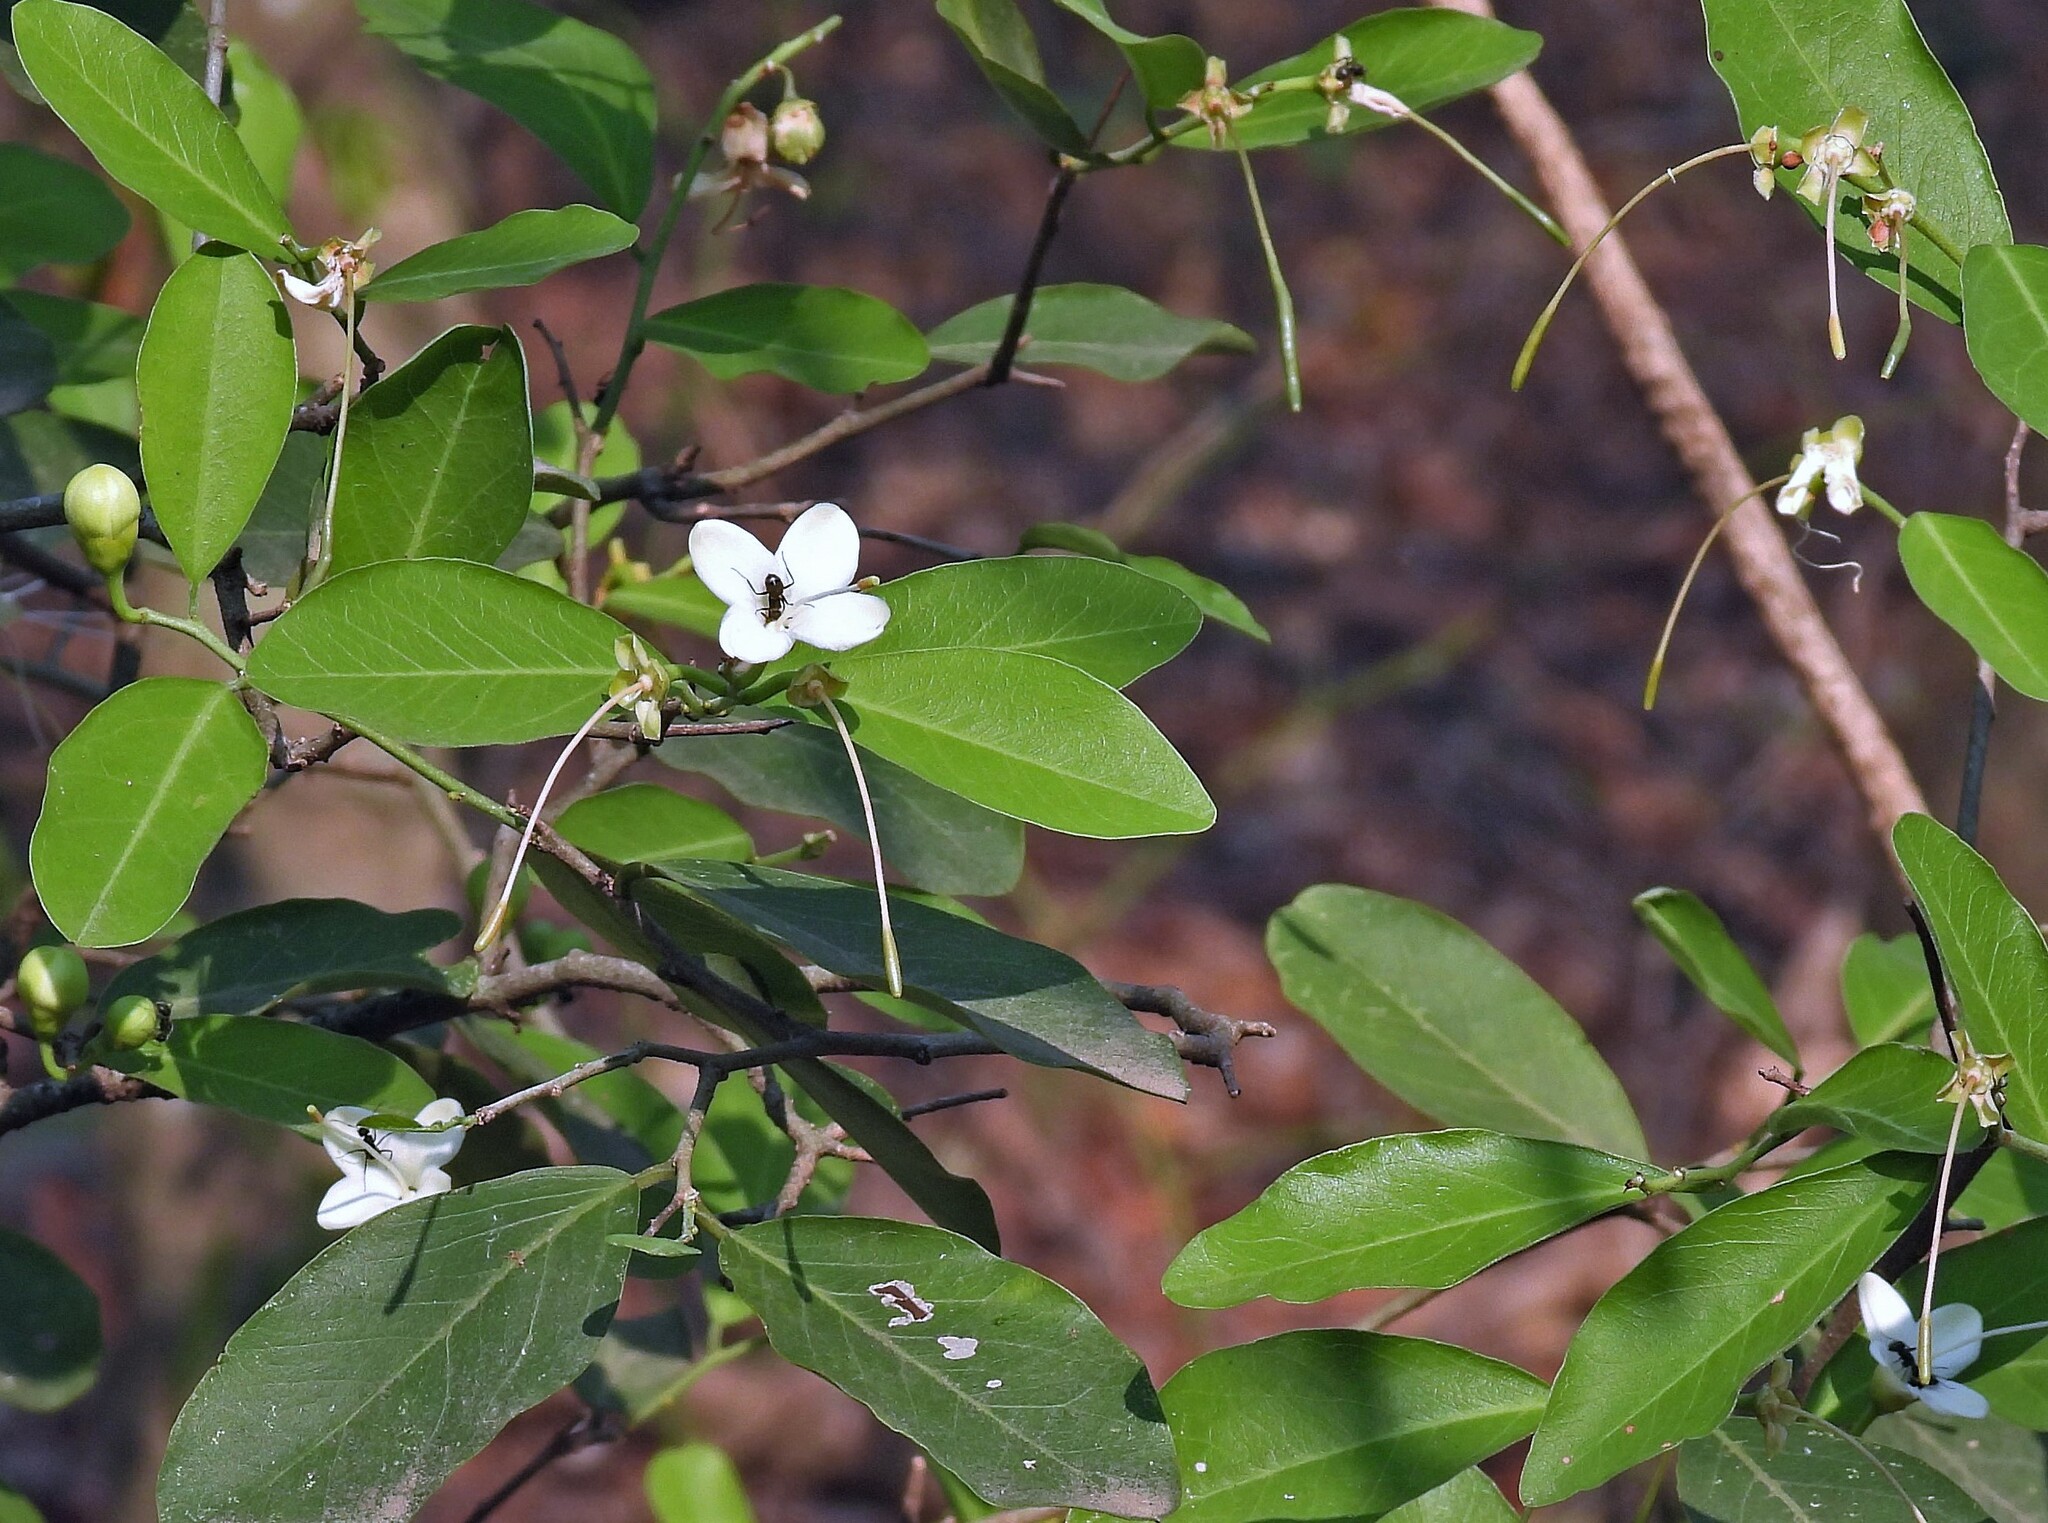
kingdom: Plantae
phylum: Tracheophyta
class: Magnoliopsida
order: Brassicales
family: Capparaceae
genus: Cynophalla
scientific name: Cynophalla polyantha
